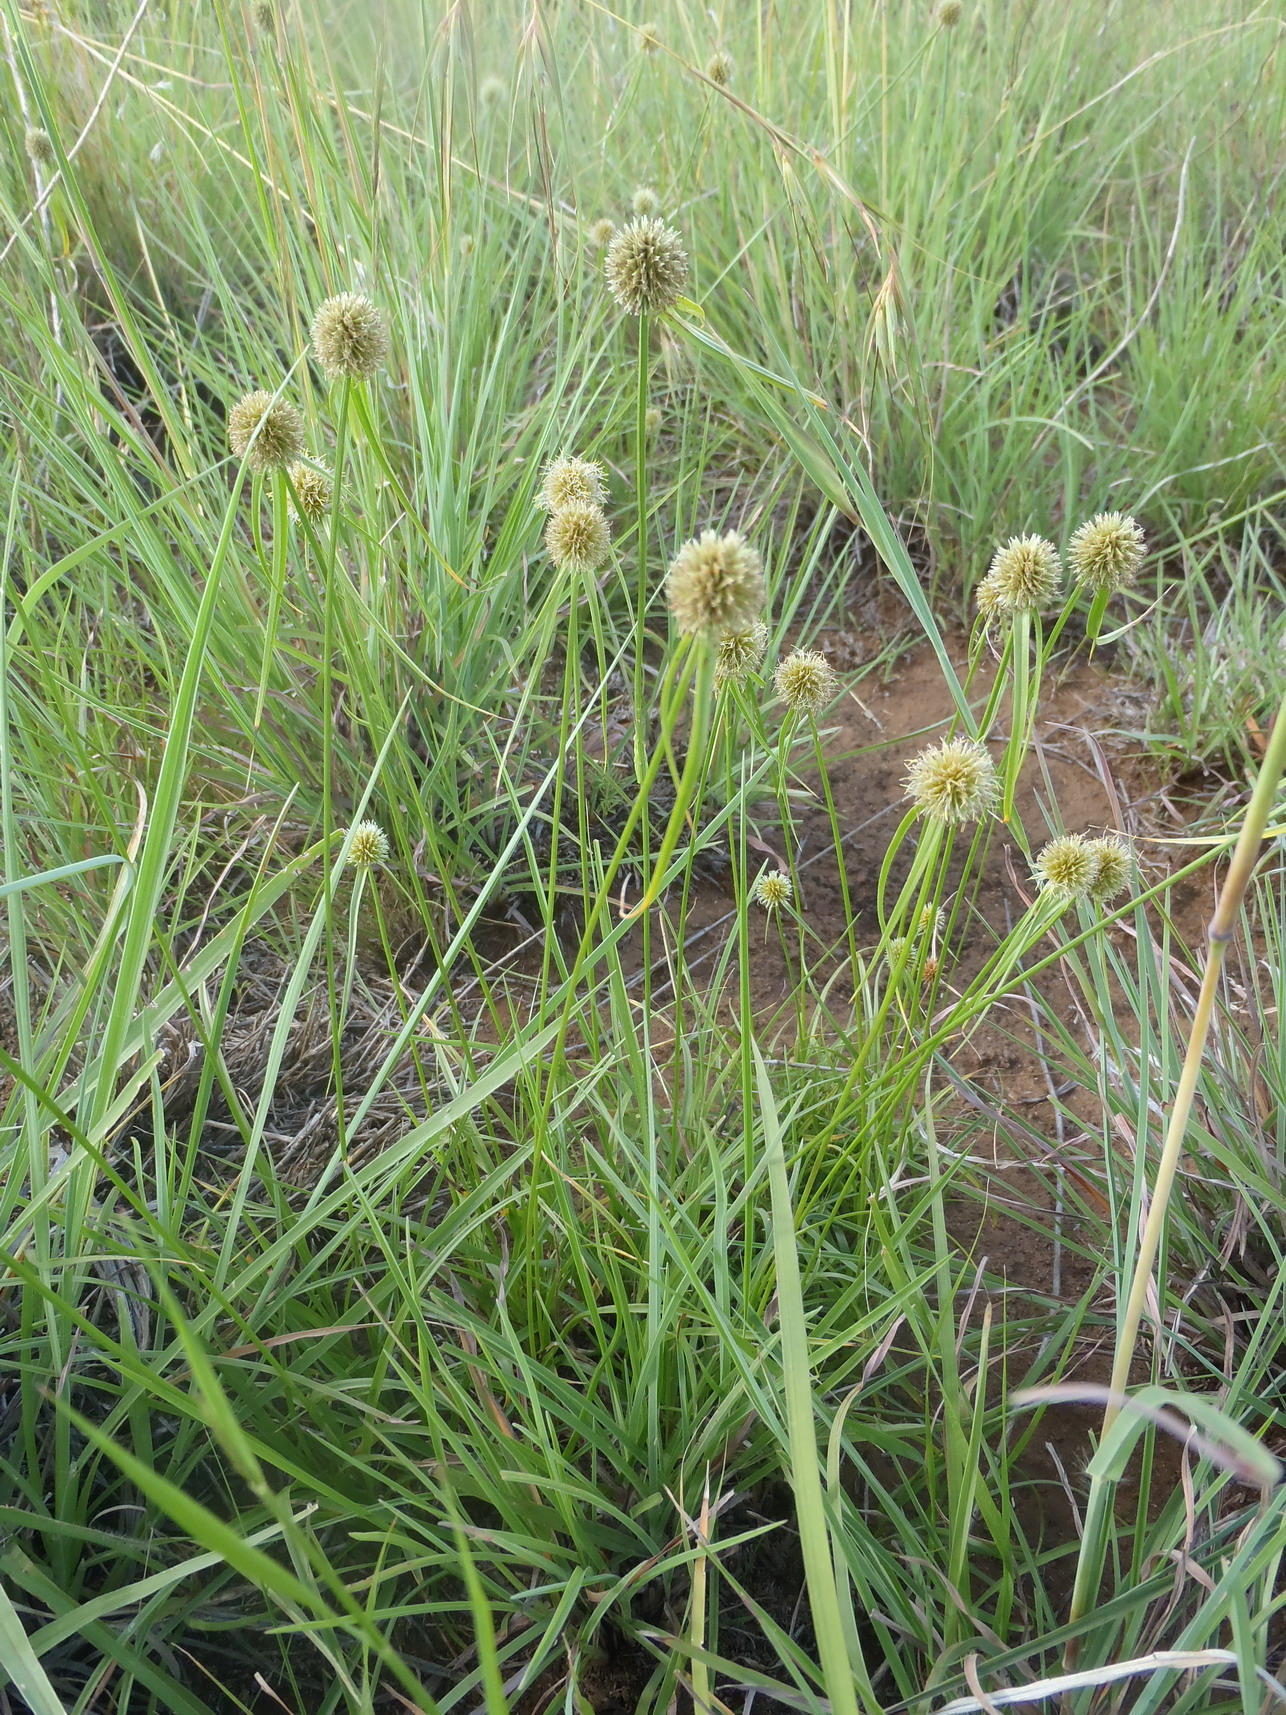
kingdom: Plantae
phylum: Tracheophyta
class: Liliopsida
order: Poales
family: Cyperaceae
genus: Cyperus
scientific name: Cyperus alatus
